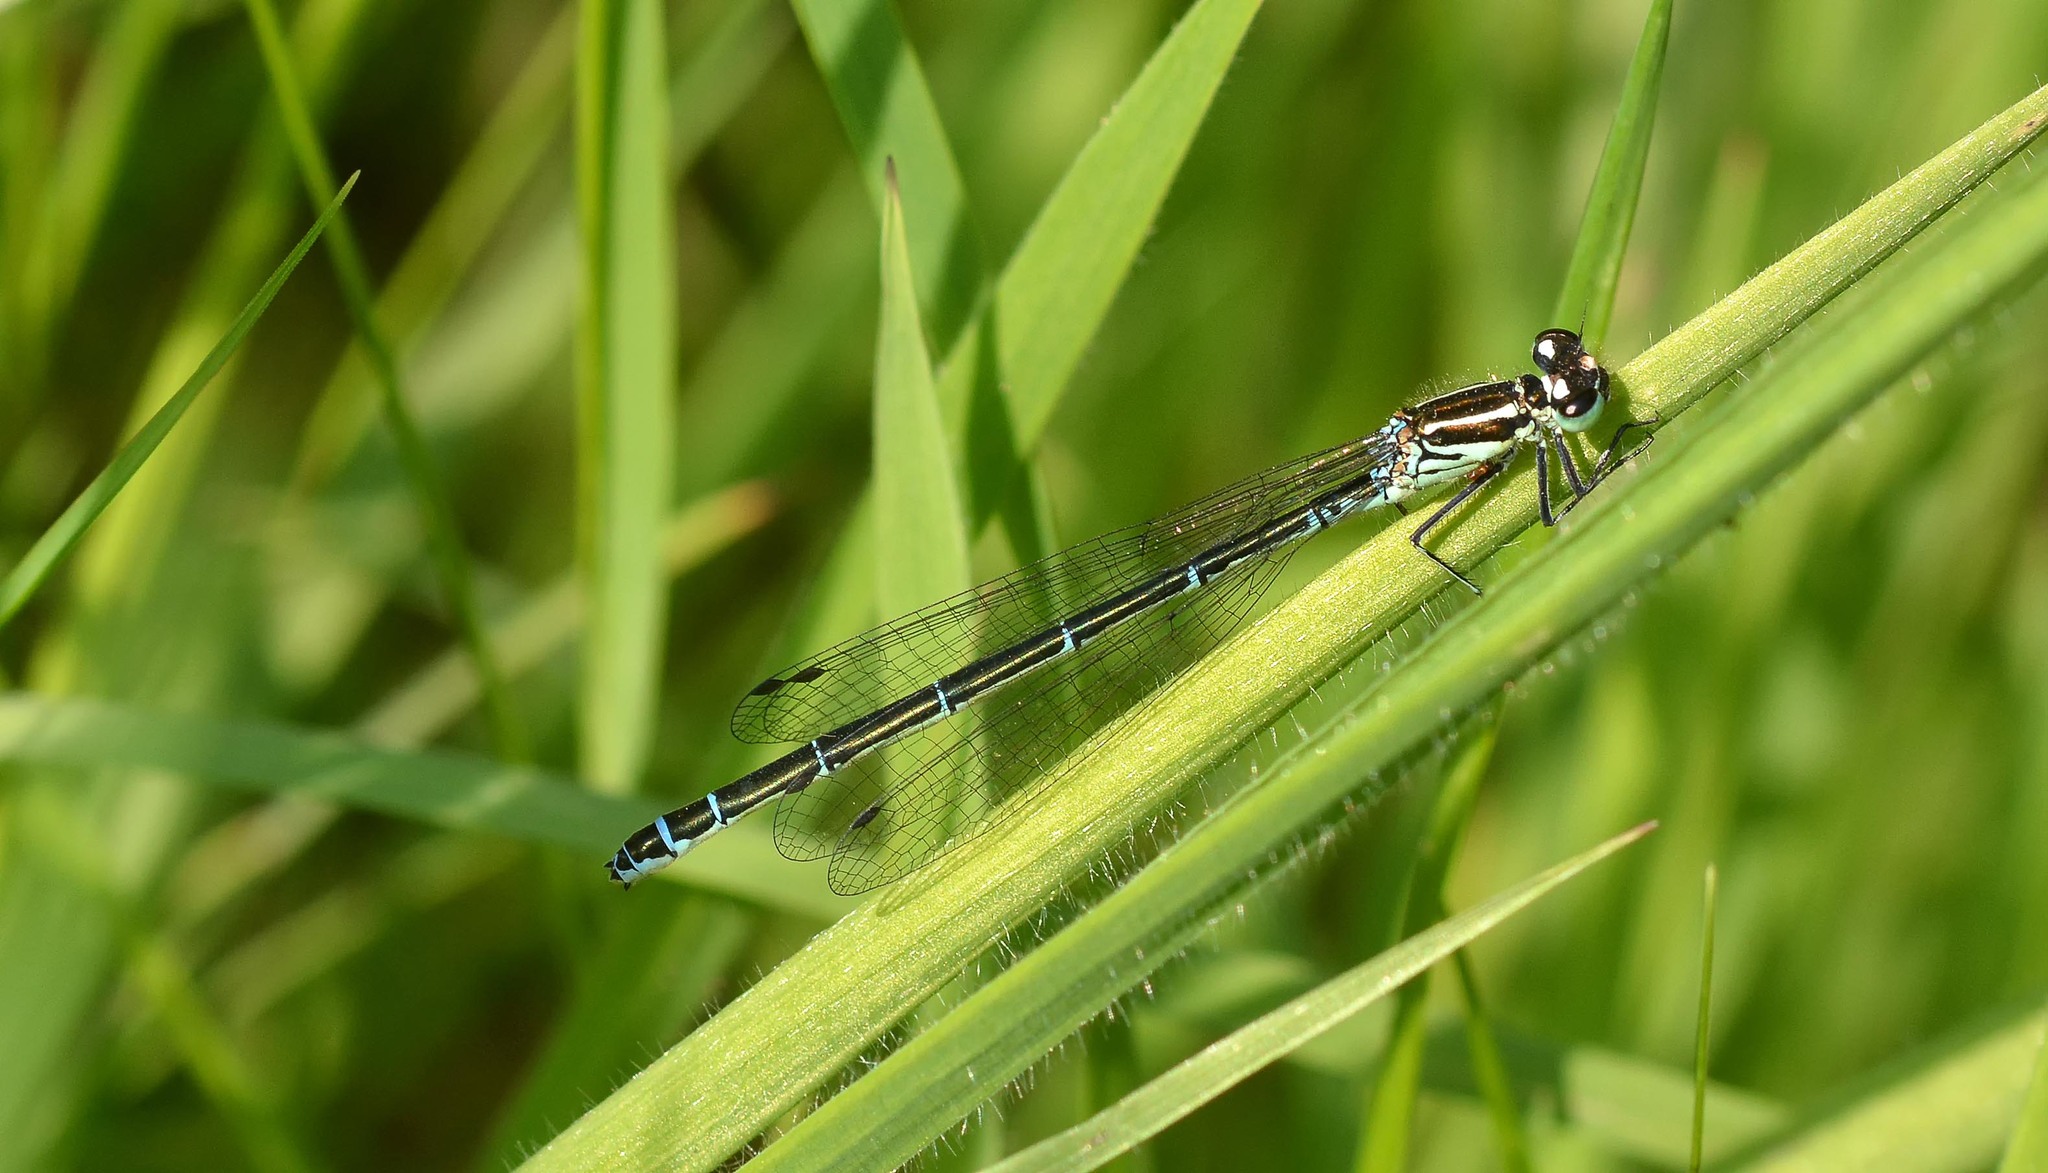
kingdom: Animalia
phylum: Arthropoda
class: Insecta
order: Odonata
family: Coenagrionidae
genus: Coenagrion
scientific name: Coenagrion puella
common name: Azure damselfly
